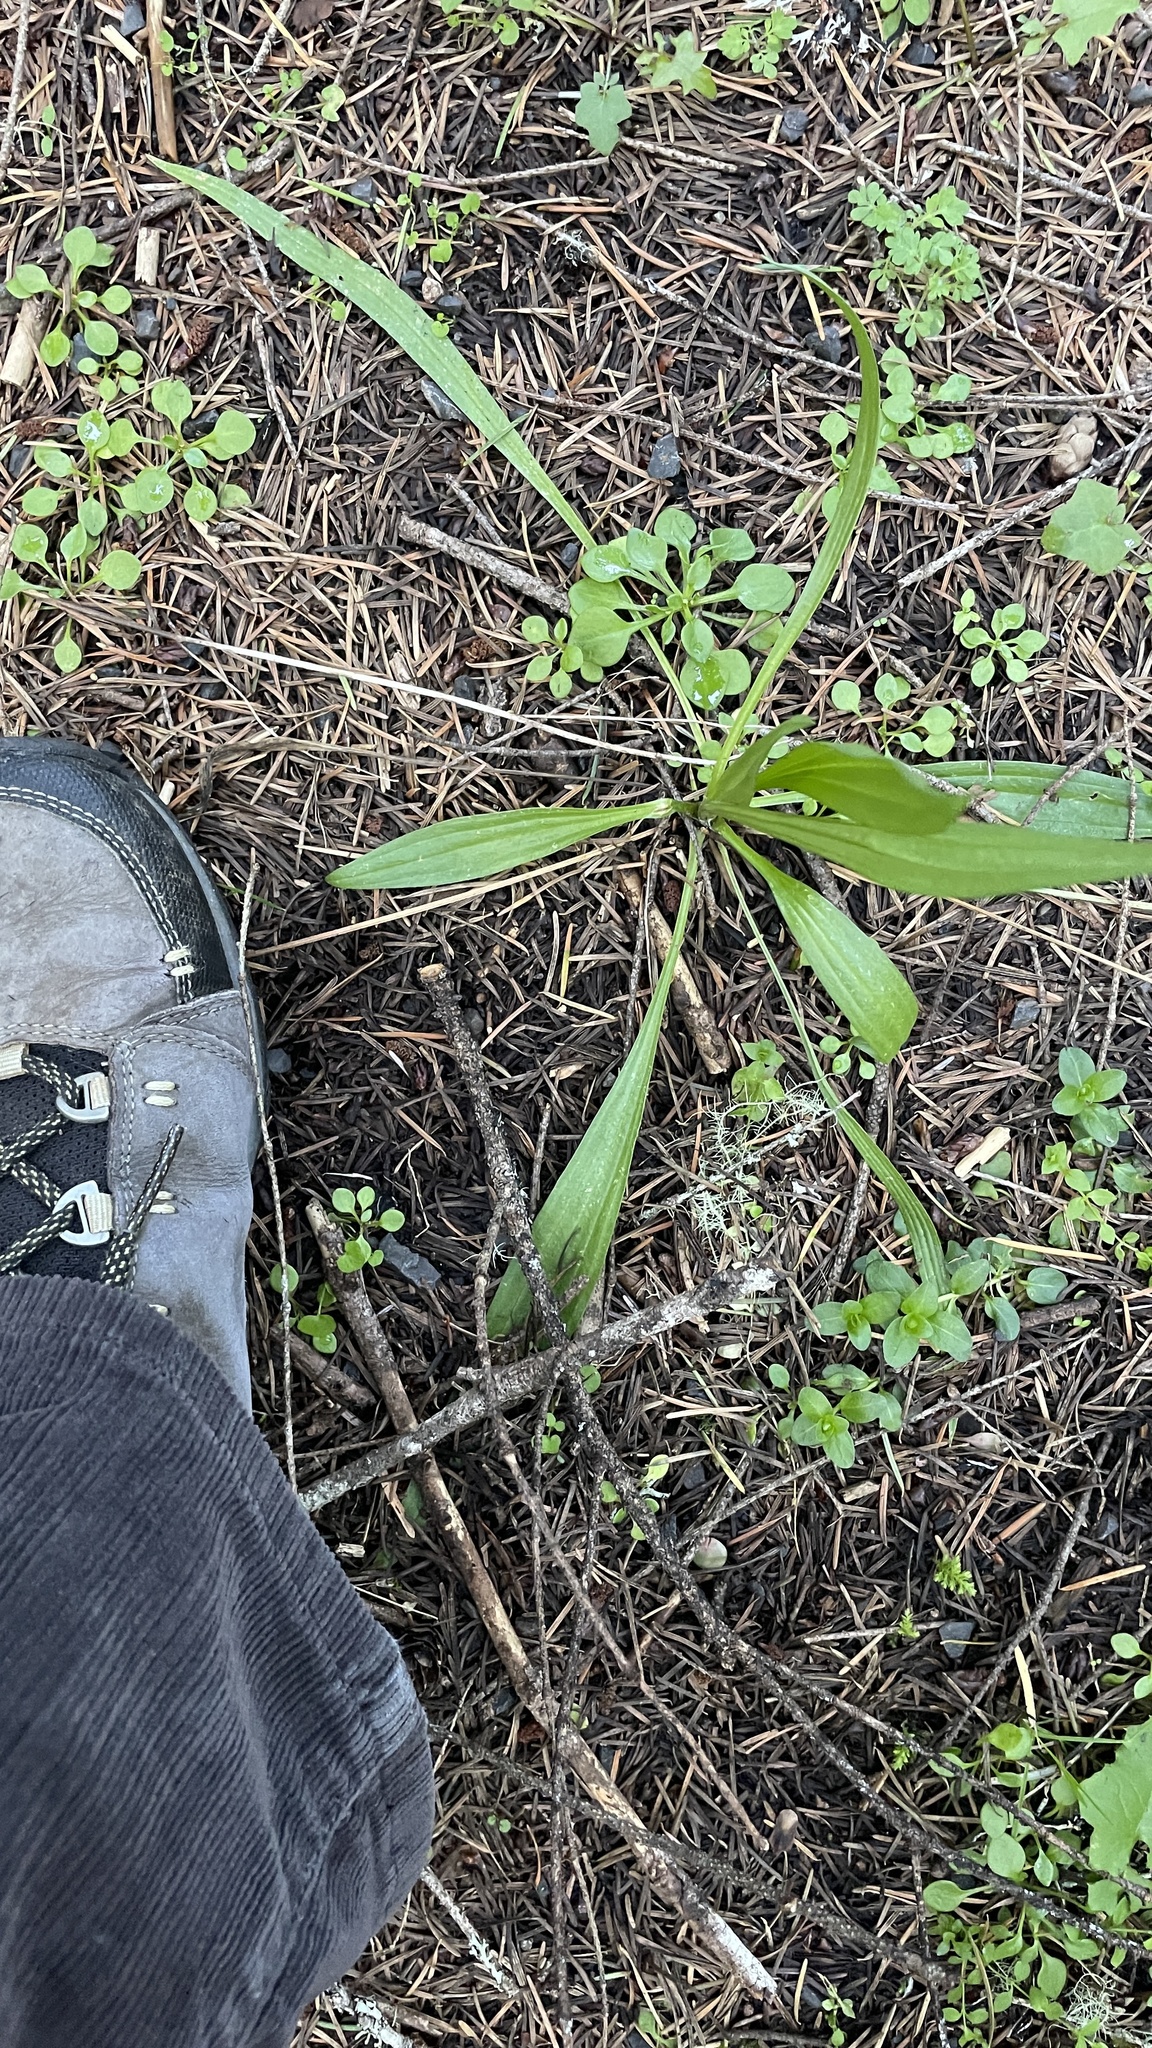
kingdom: Plantae
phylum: Tracheophyta
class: Magnoliopsida
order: Lamiales
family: Plantaginaceae
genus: Plantago
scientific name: Plantago lanceolata
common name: Ribwort plantain
